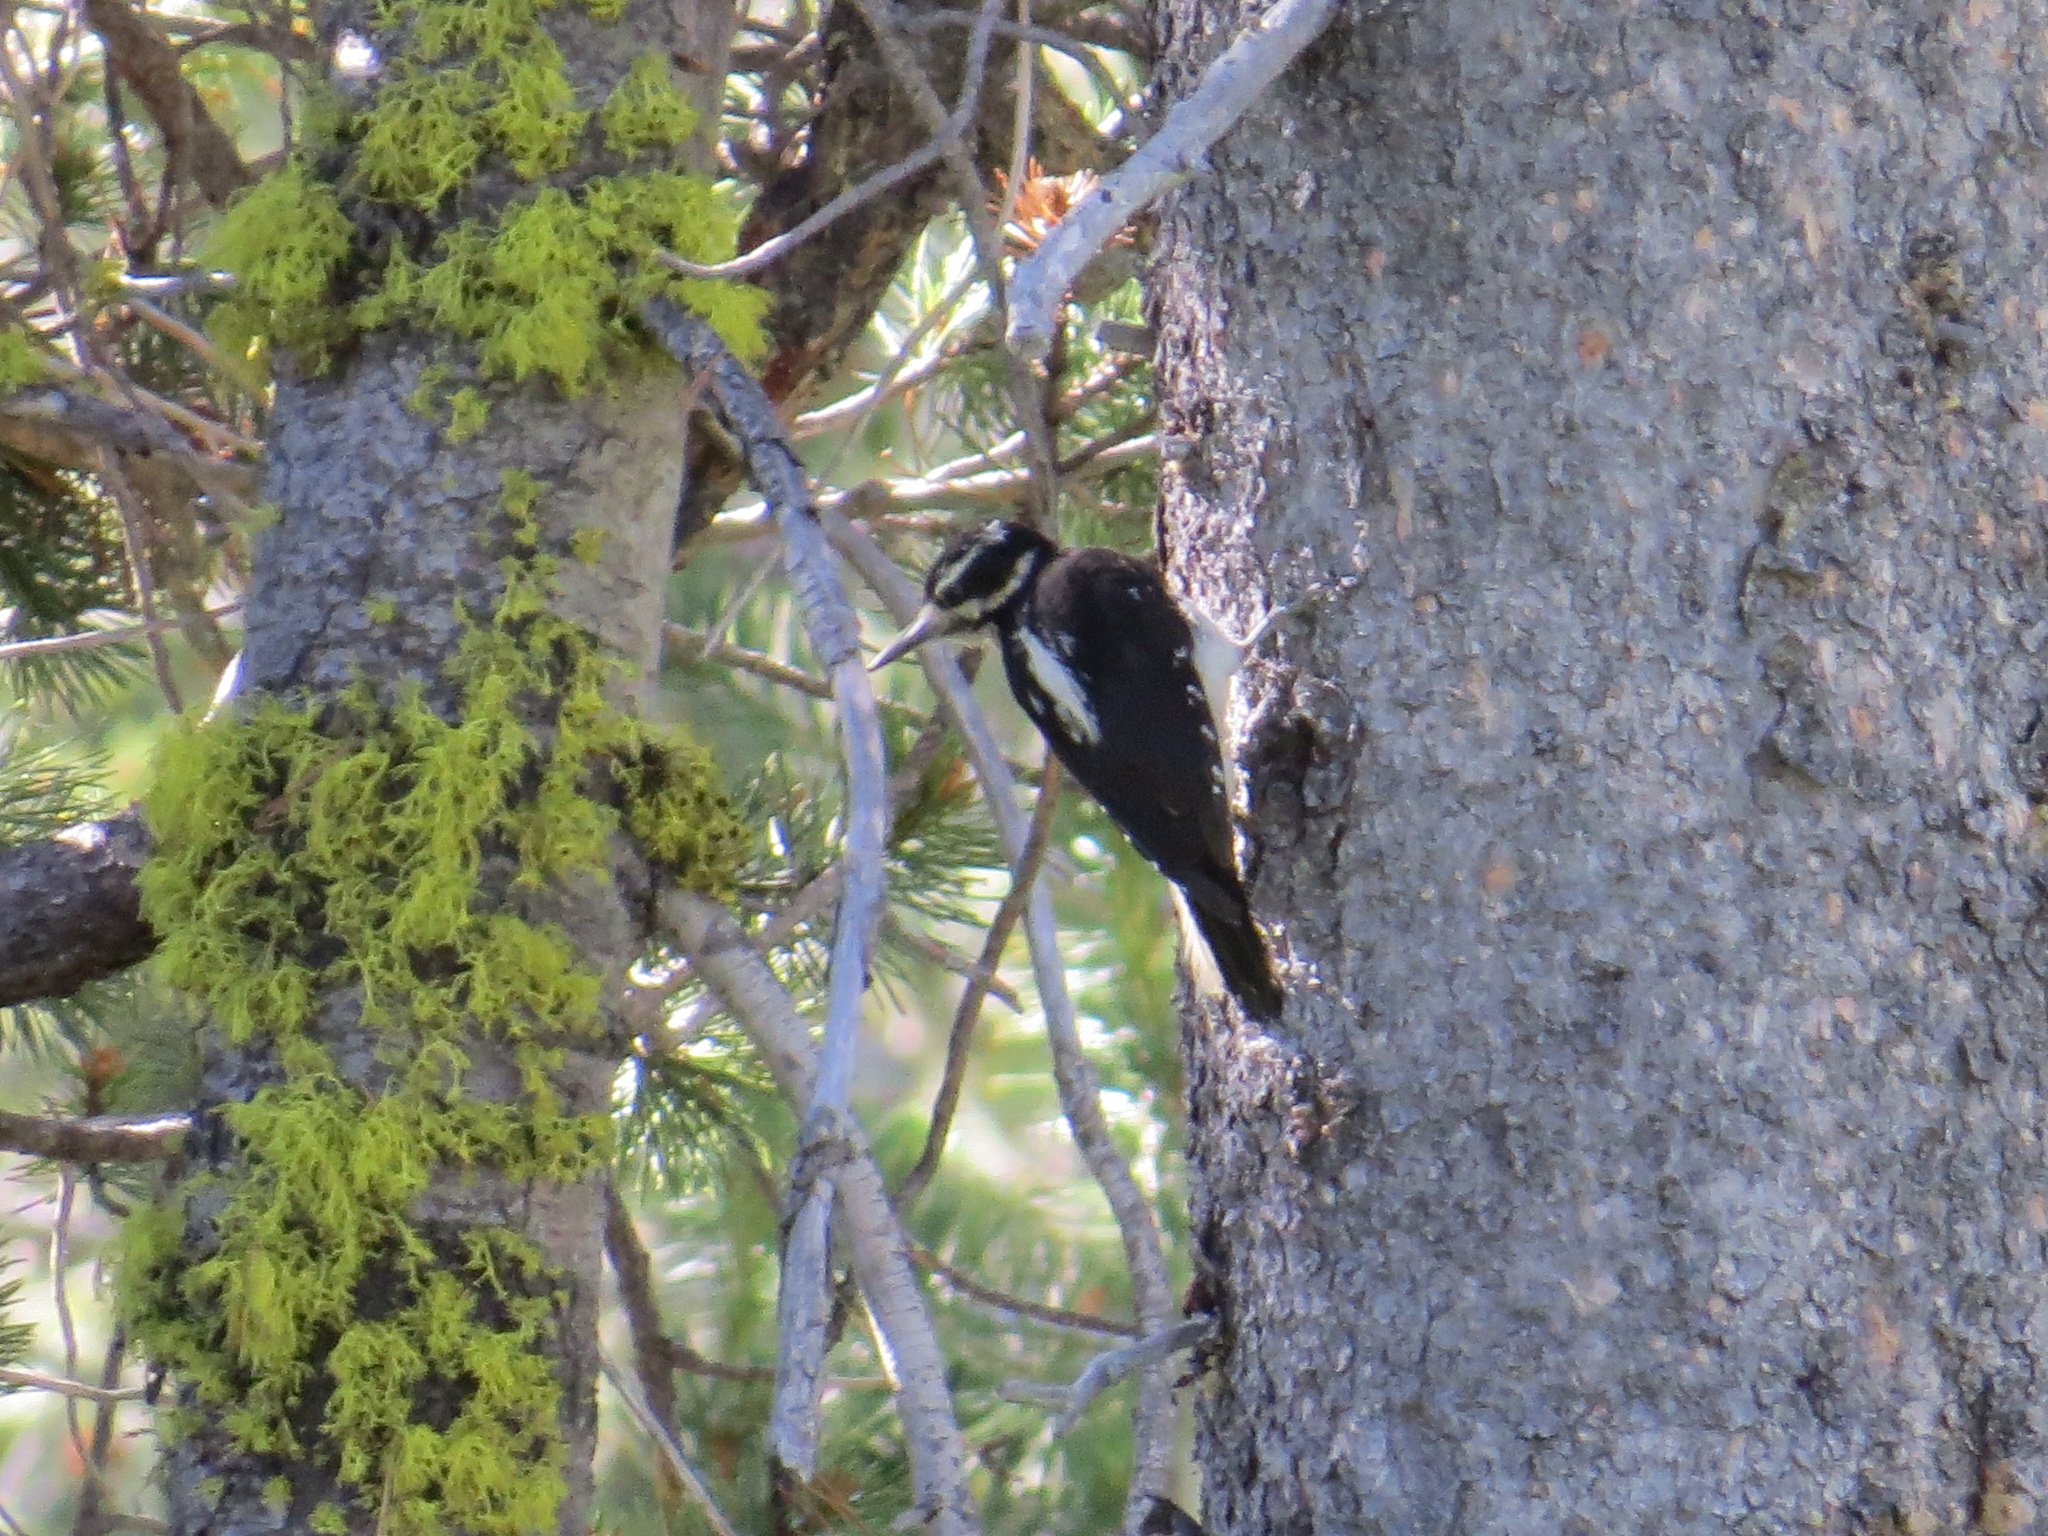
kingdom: Animalia
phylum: Chordata
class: Aves
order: Piciformes
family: Picidae
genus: Leuconotopicus
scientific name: Leuconotopicus villosus
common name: Hairy woodpecker
